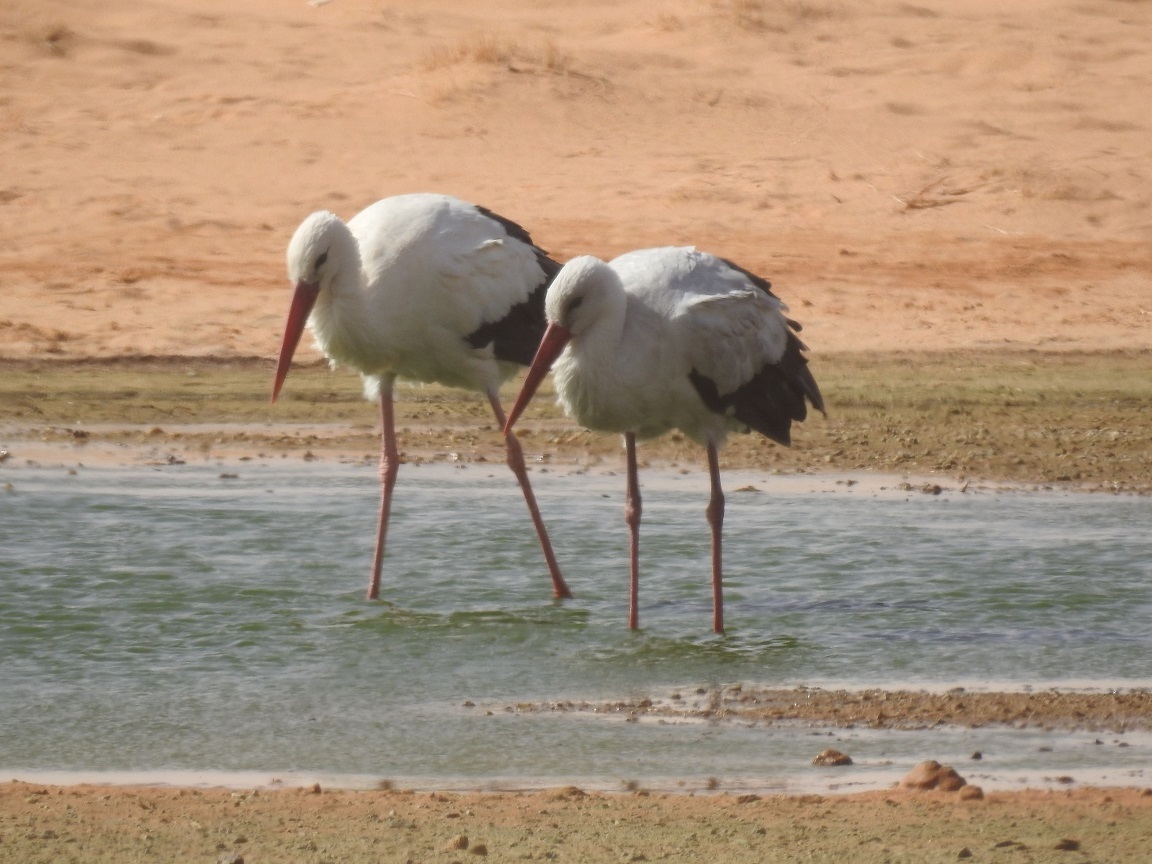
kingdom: Animalia
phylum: Chordata
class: Aves
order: Ciconiiformes
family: Ciconiidae
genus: Ciconia
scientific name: Ciconia ciconia
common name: White stork
